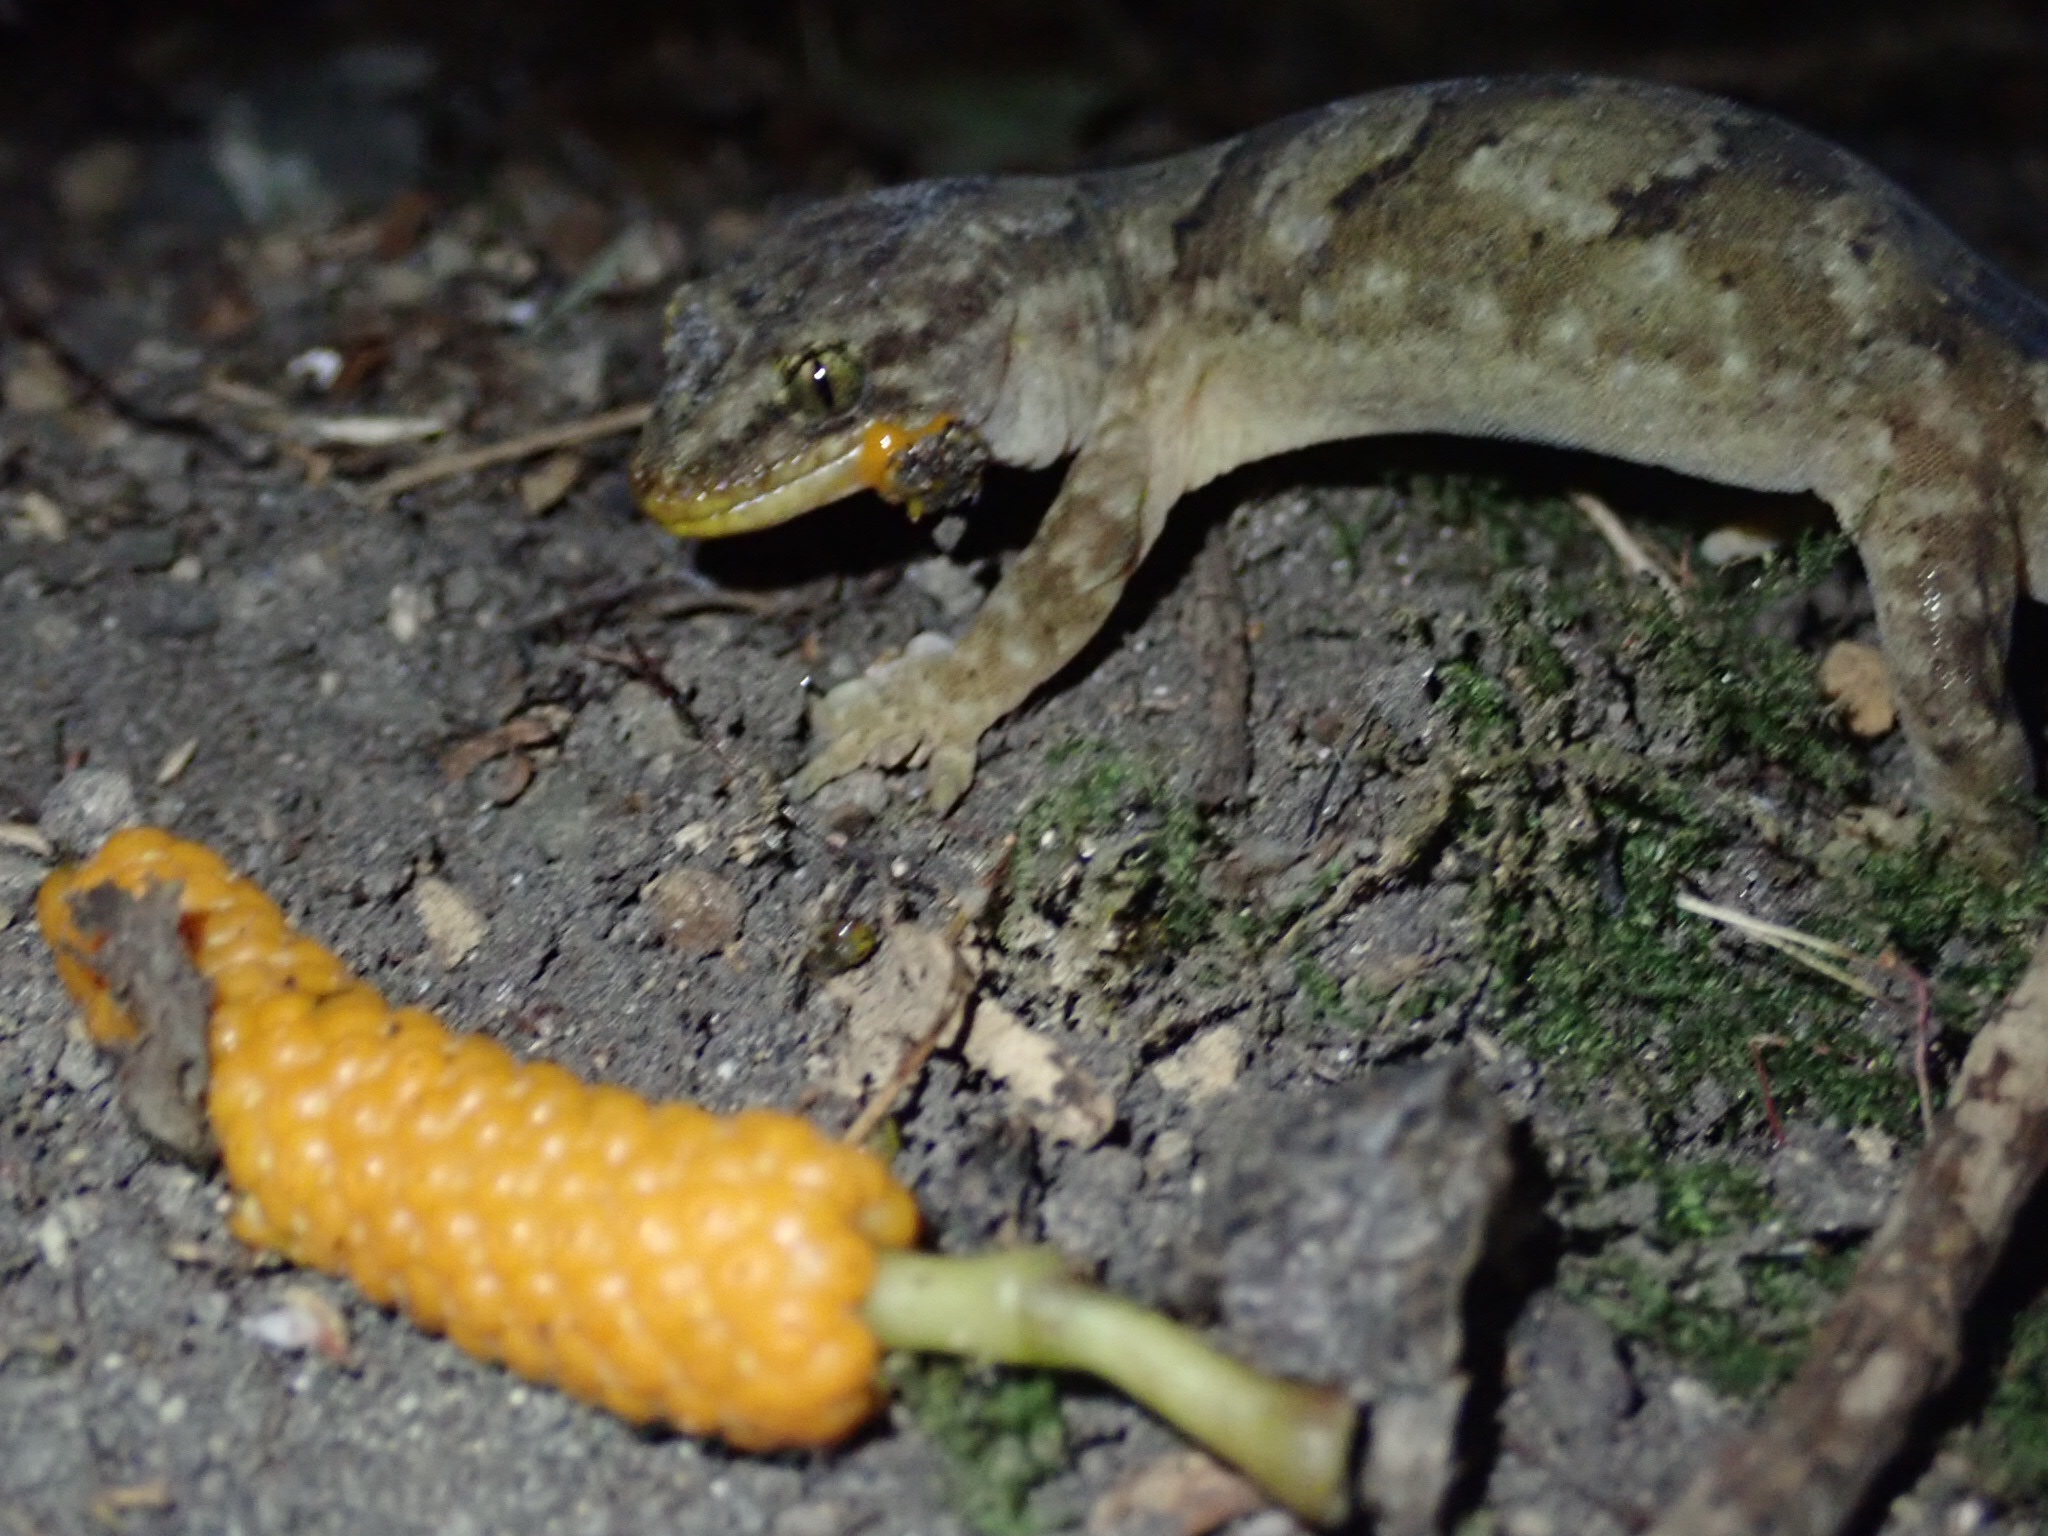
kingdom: Animalia
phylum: Chordata
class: Squamata
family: Diplodactylidae
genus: Woodworthia
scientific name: Woodworthia maculata
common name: Raukawa gecko
